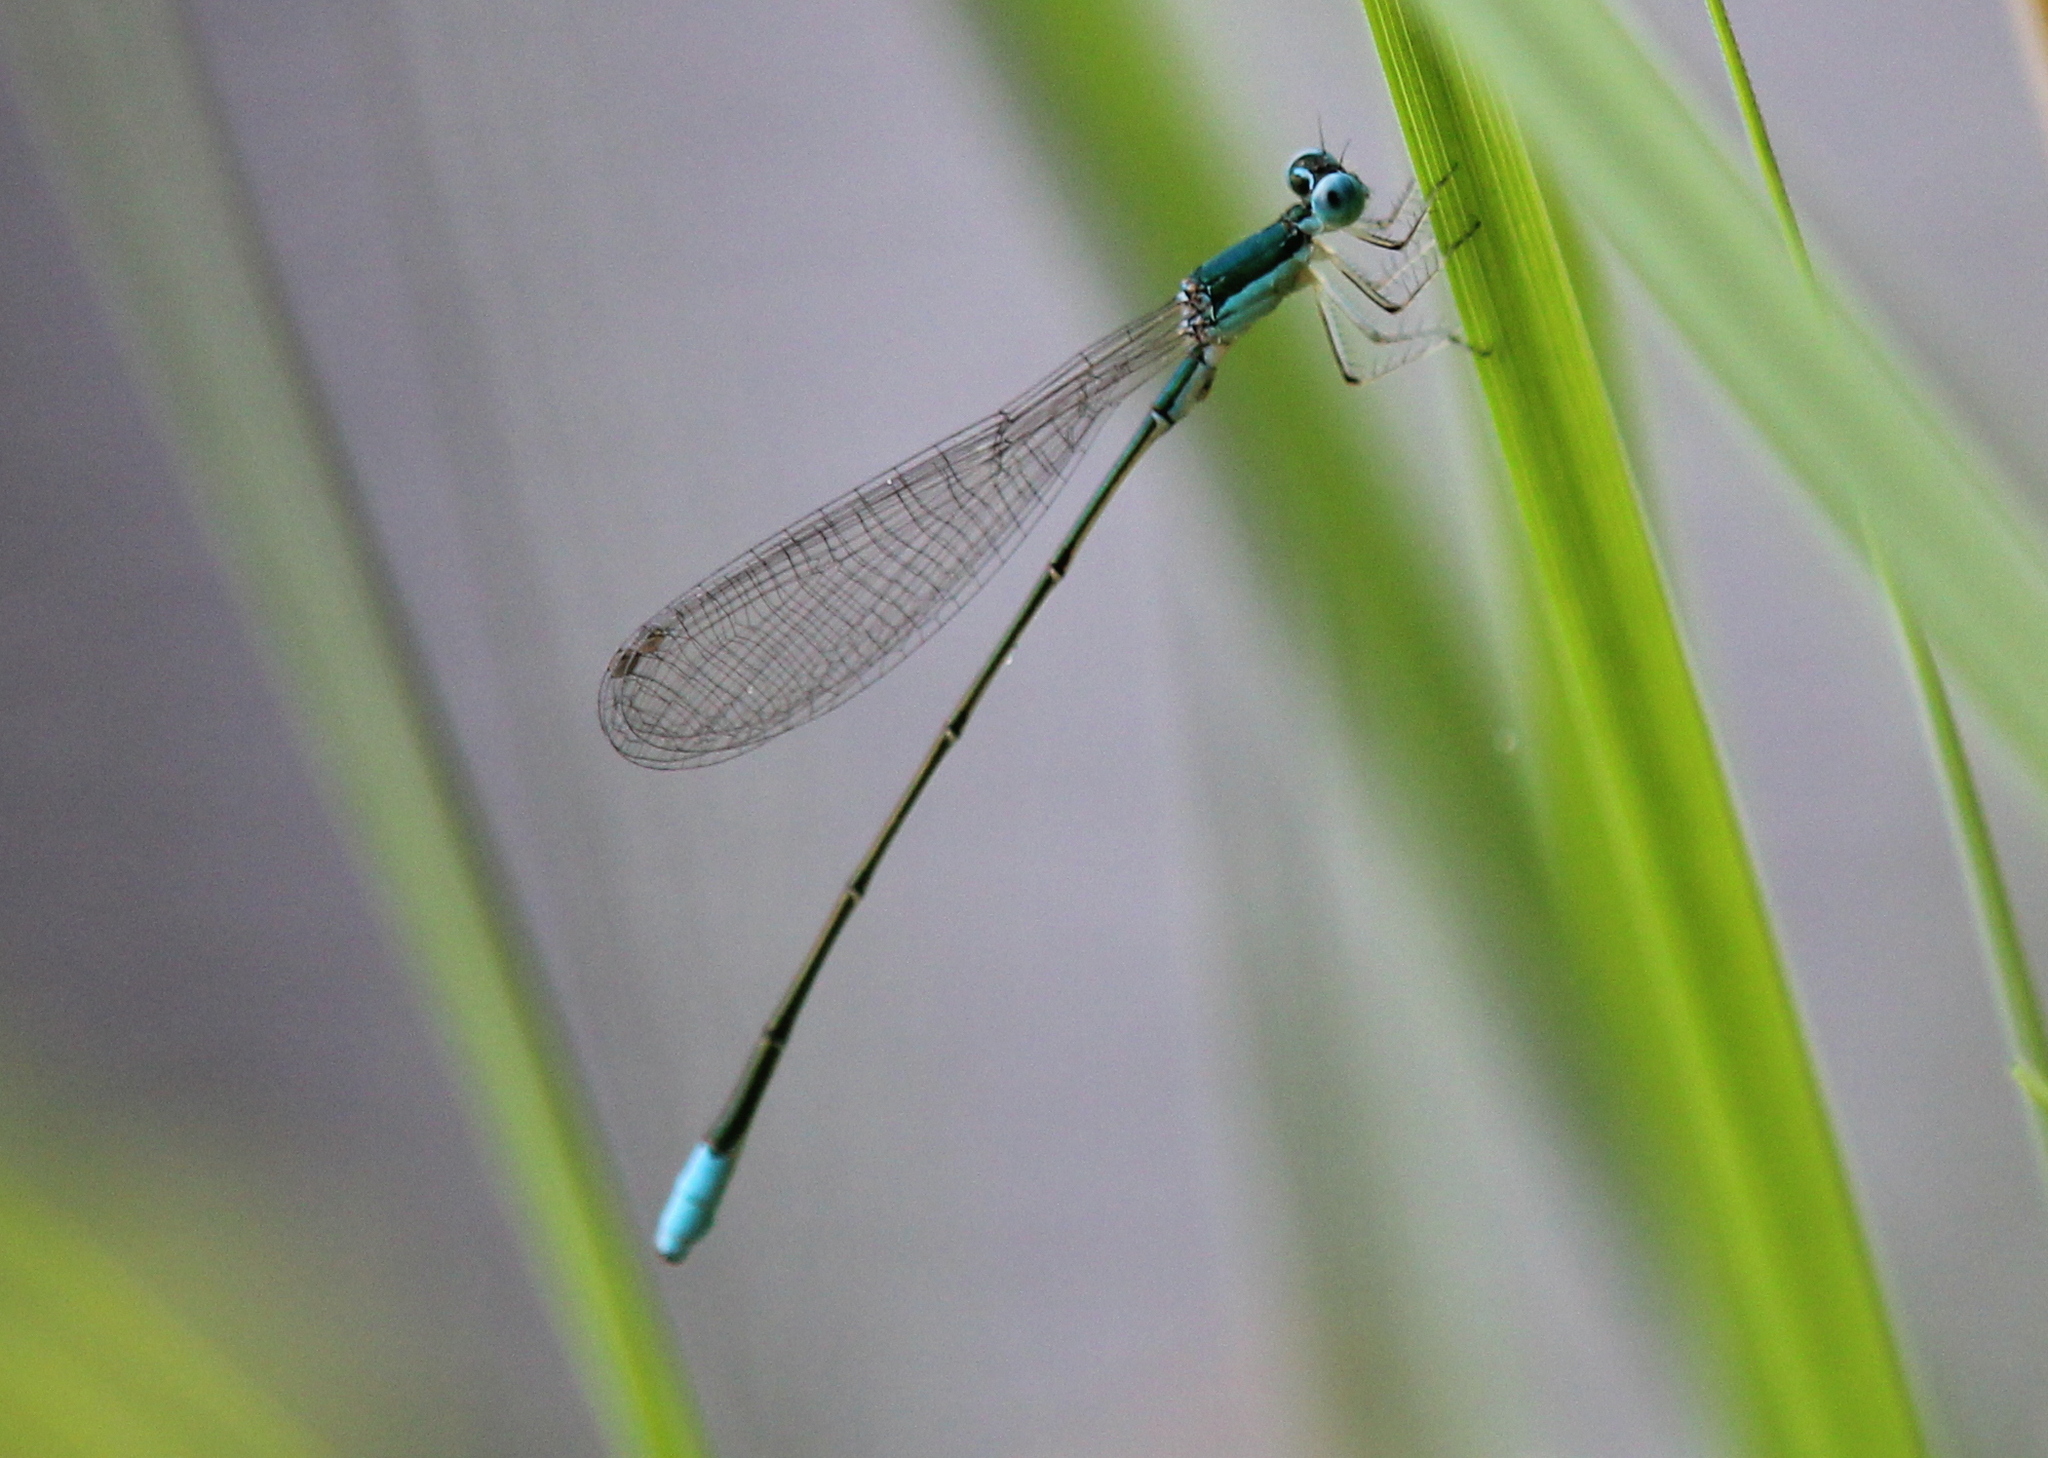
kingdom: Animalia
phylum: Arthropoda
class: Insecta
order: Odonata
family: Coenagrionidae
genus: Nehalennia
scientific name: Nehalennia gracilis
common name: Sphagnum sprite
